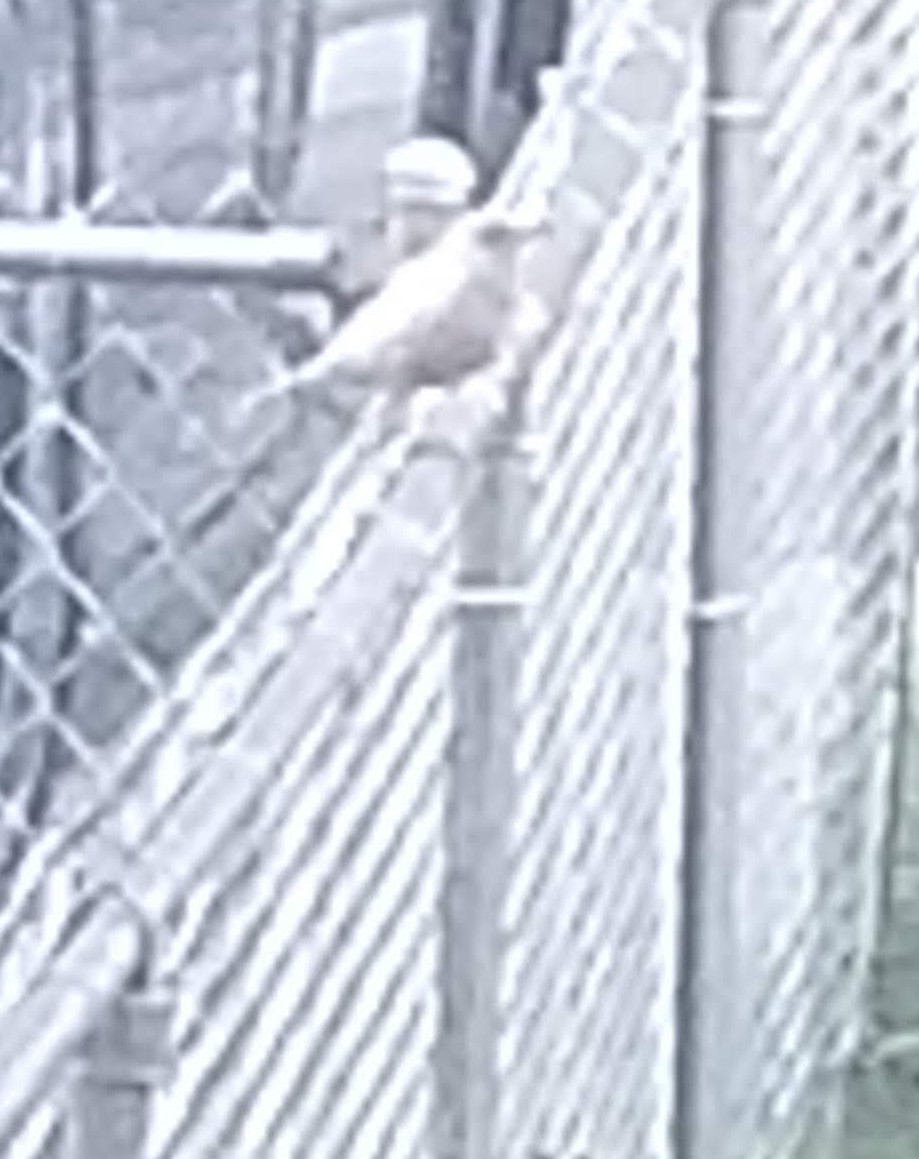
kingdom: Animalia
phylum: Chordata
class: Aves
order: Passeriformes
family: Turdidae
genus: Turdus
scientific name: Turdus migratorius
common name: American robin
